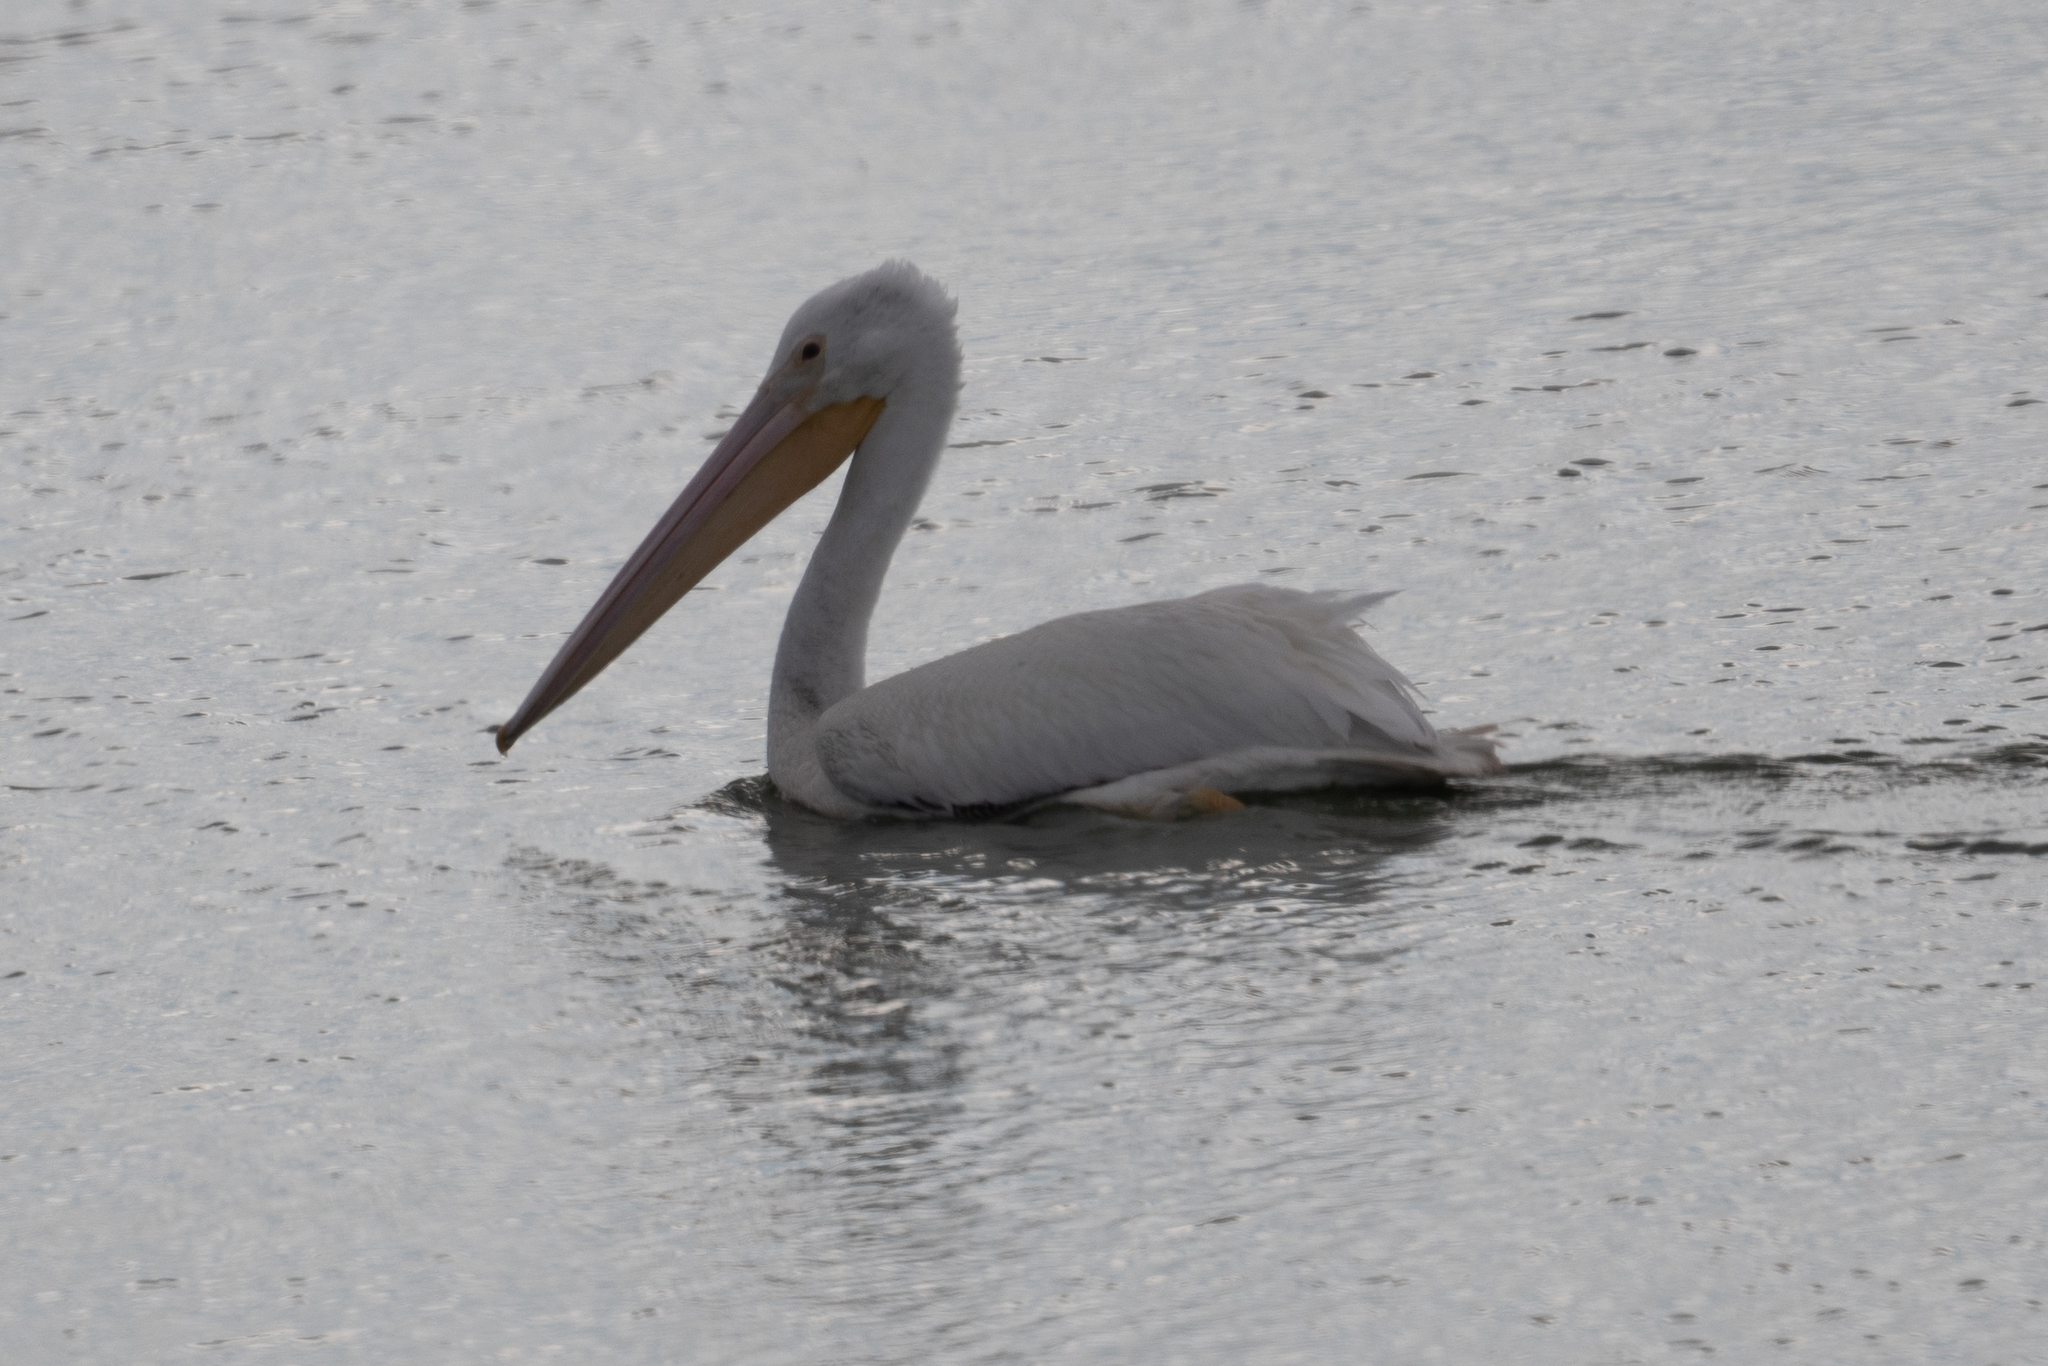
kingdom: Animalia
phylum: Chordata
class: Aves
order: Pelecaniformes
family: Pelecanidae
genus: Pelecanus
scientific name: Pelecanus erythrorhynchos
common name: American white pelican
